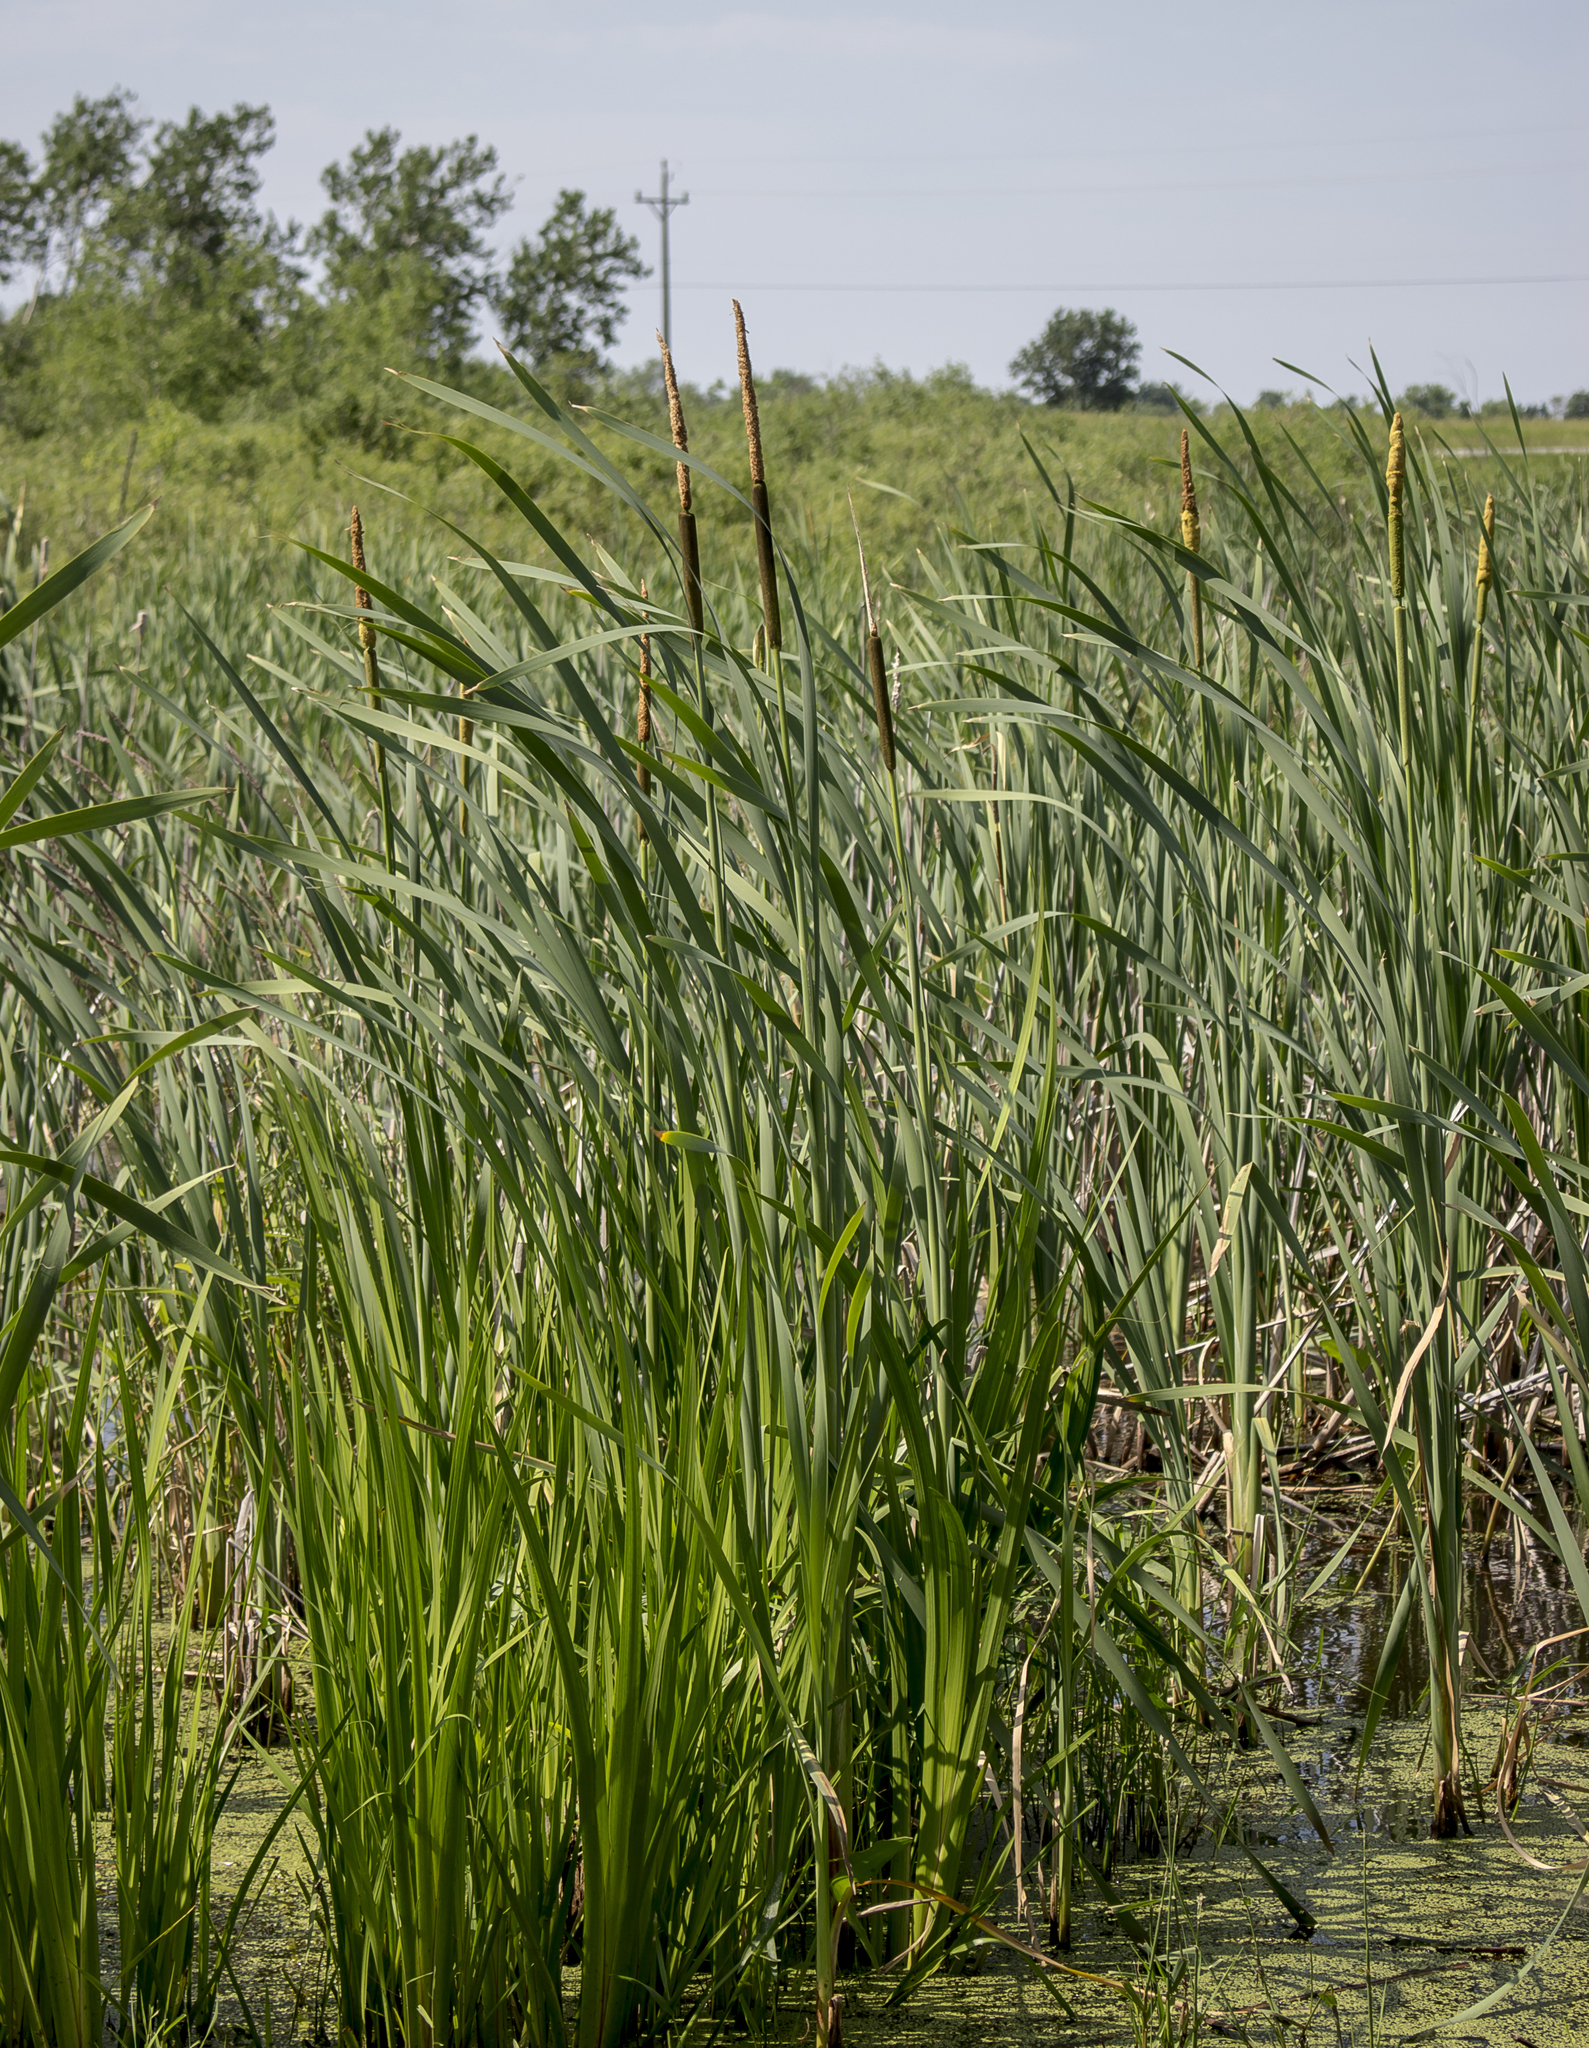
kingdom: Plantae
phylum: Tracheophyta
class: Liliopsida
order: Poales
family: Typhaceae
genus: Typha
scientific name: Typha latifolia
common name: Broadleaf cattail
